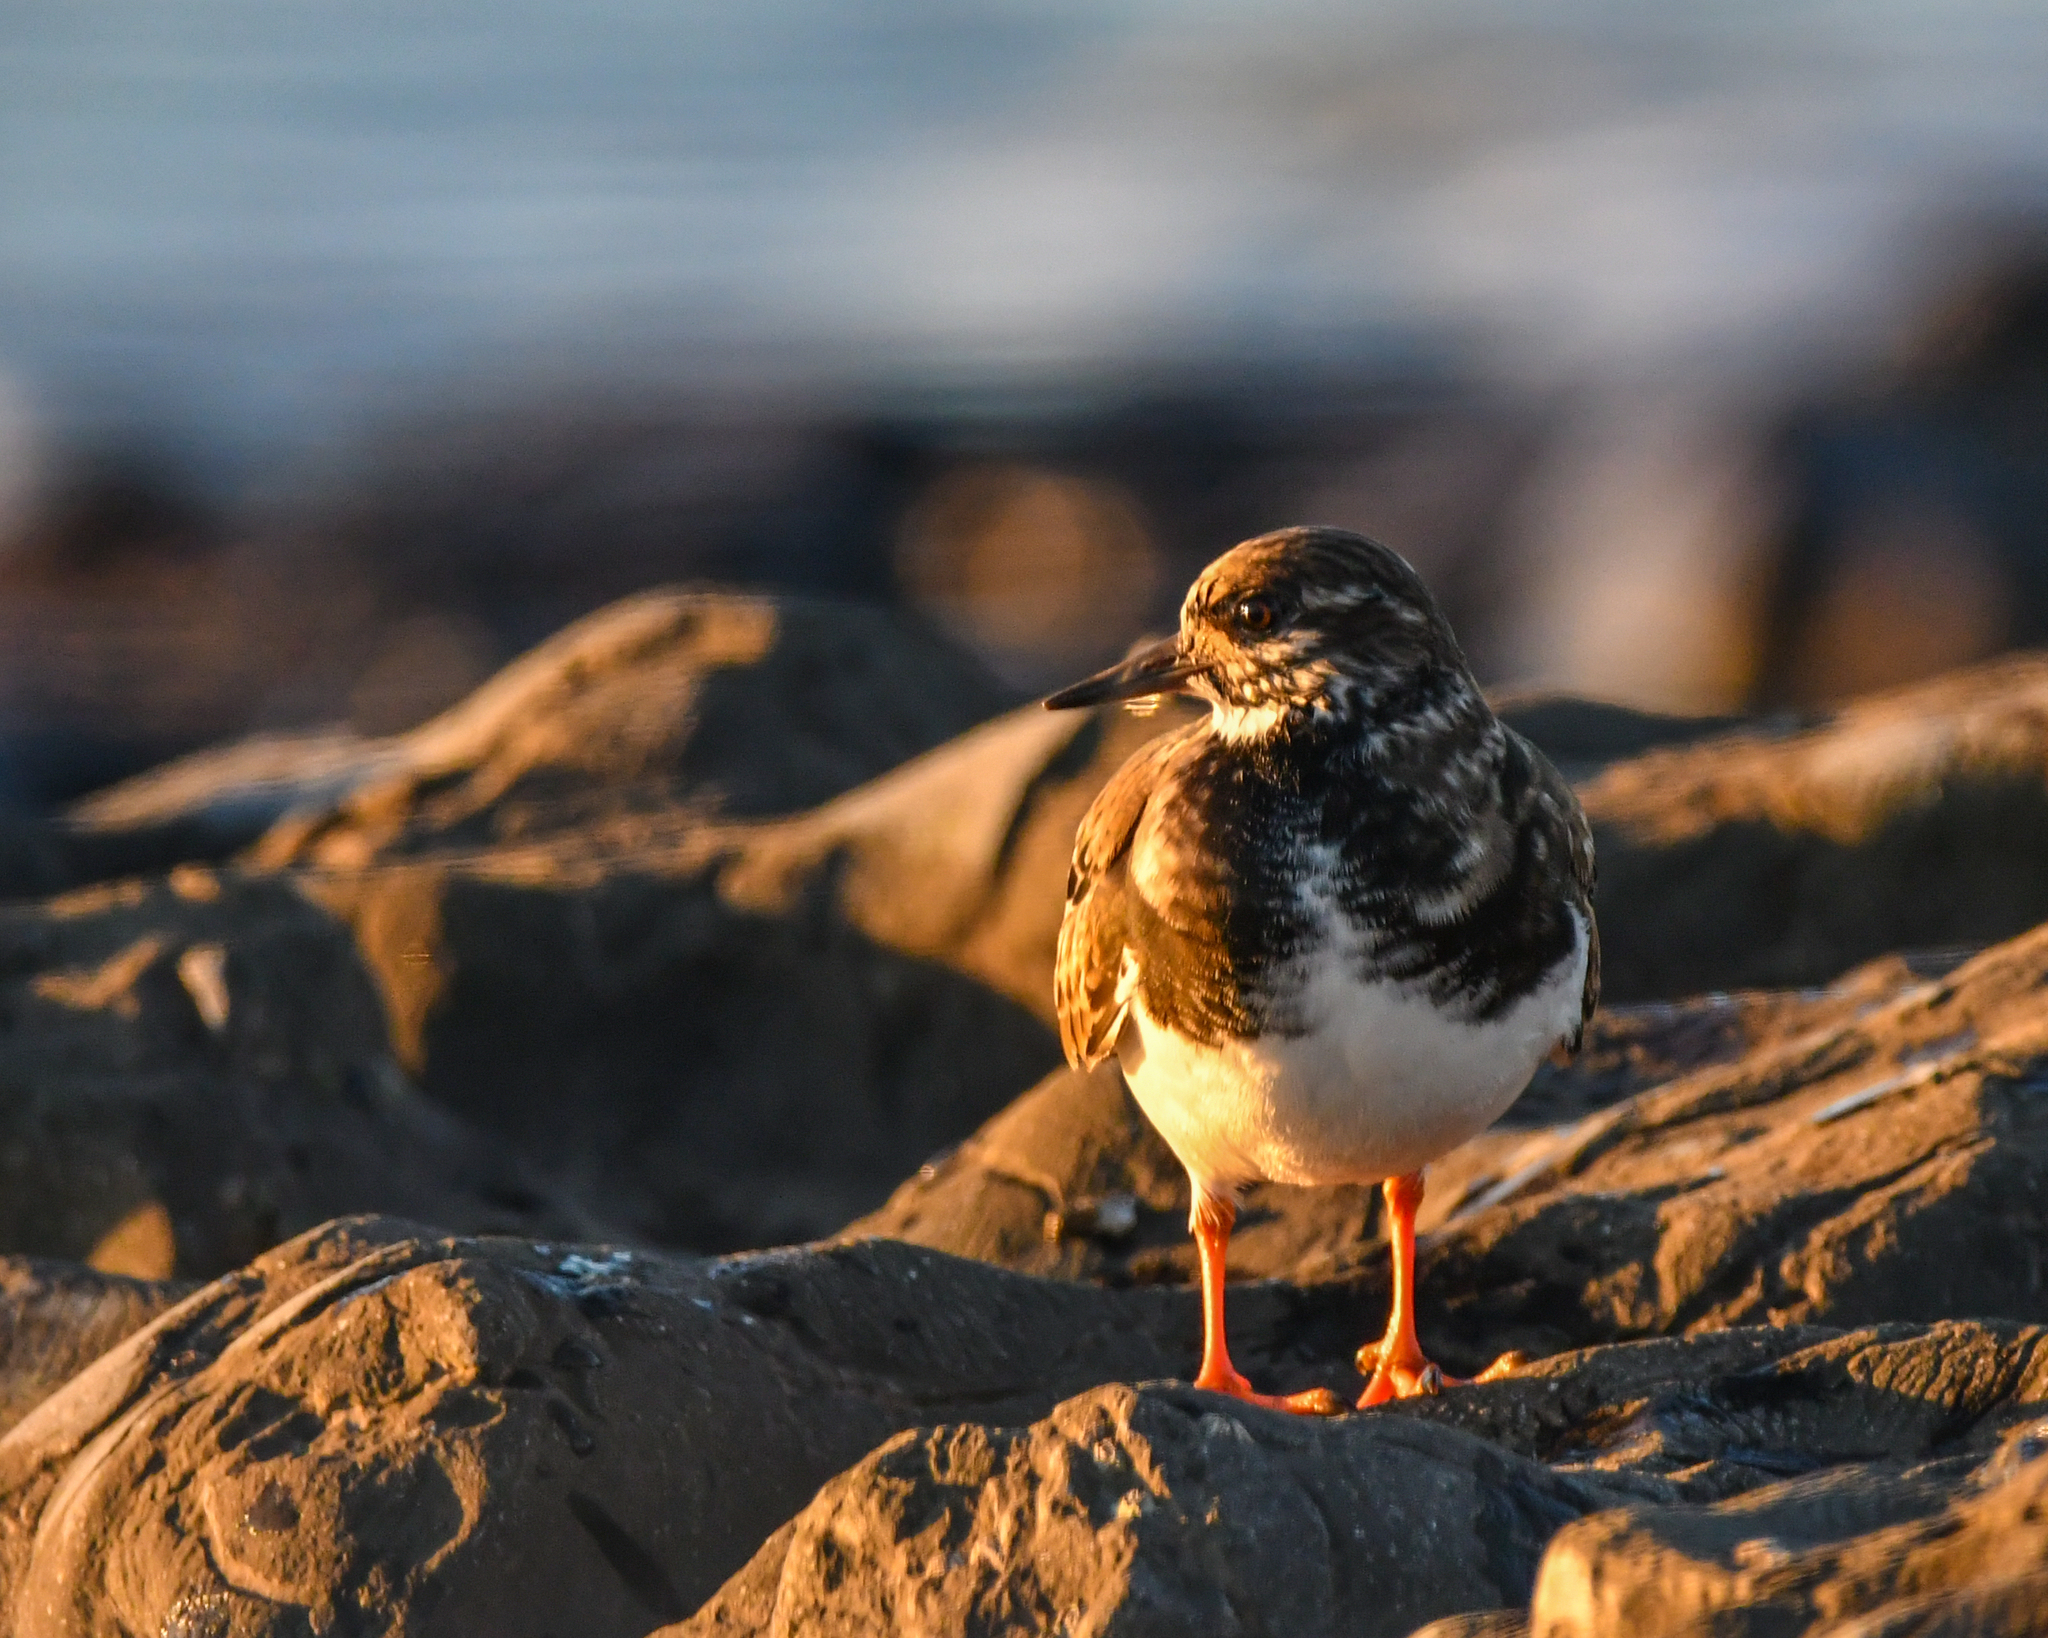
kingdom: Animalia
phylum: Chordata
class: Aves
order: Charadriiformes
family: Scolopacidae
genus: Arenaria
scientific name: Arenaria interpres
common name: Ruddy turnstone
